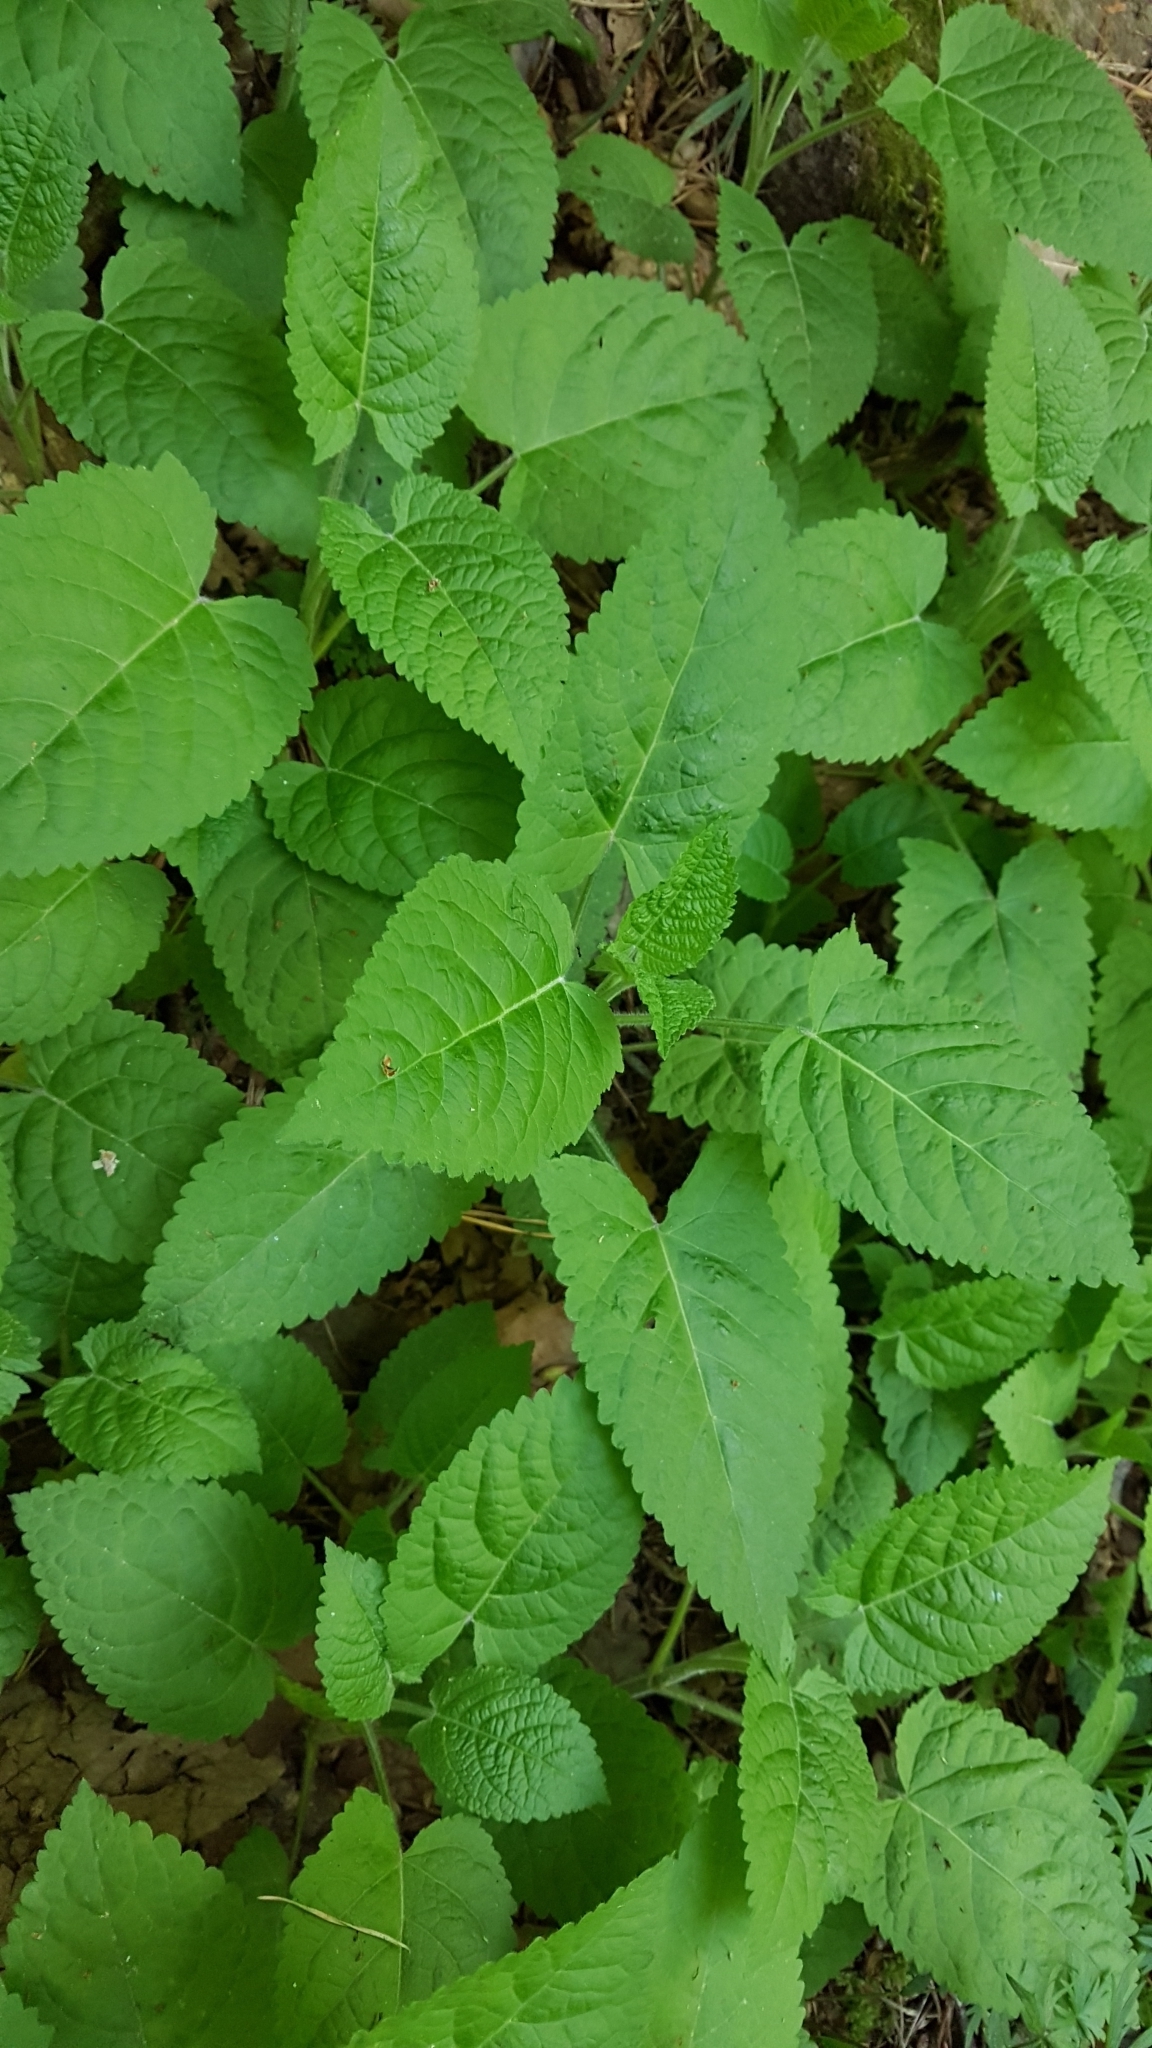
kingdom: Plantae
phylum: Tracheophyta
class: Magnoliopsida
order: Lamiales
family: Lamiaceae
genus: Salvia
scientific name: Salvia glutinosa
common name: Sticky clary
